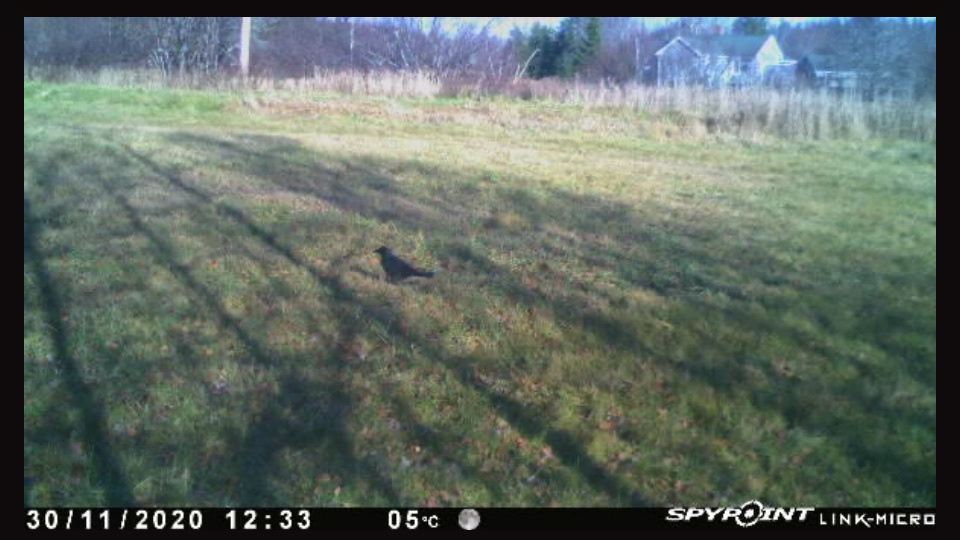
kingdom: Animalia
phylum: Chordata
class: Aves
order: Passeriformes
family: Corvidae
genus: Corvus
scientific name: Corvus brachyrhynchos
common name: American crow
